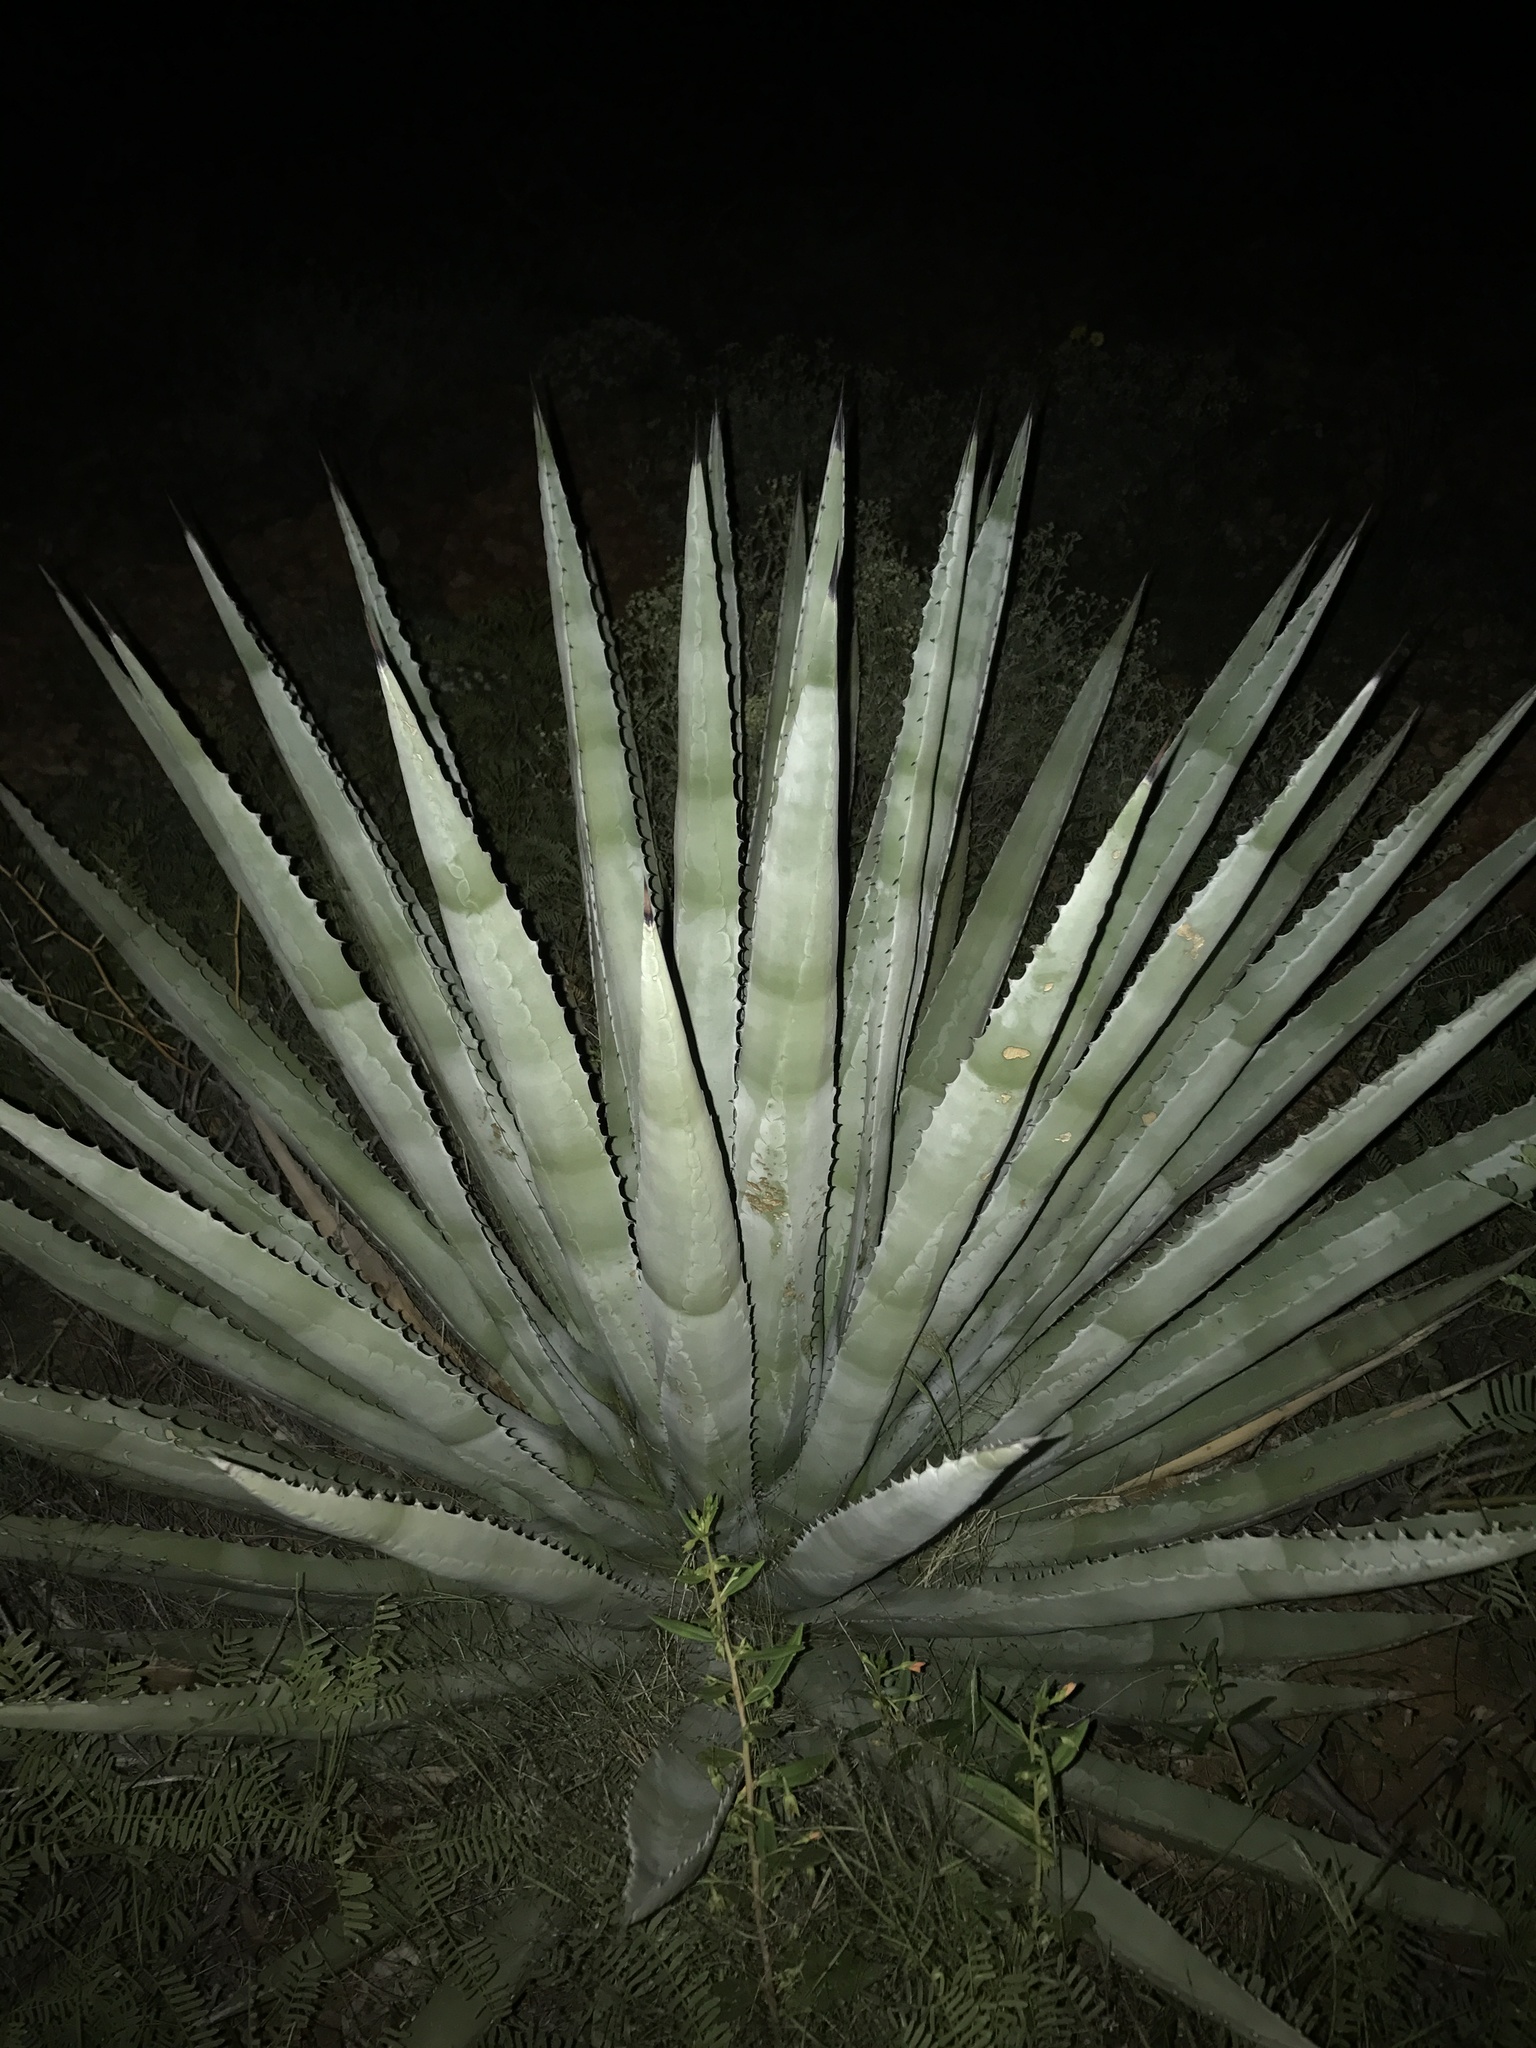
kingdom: Plantae
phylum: Tracheophyta
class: Liliopsida
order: Asparagales
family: Asparagaceae
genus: Agave
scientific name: Agave palmeri
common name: Palmer agave
